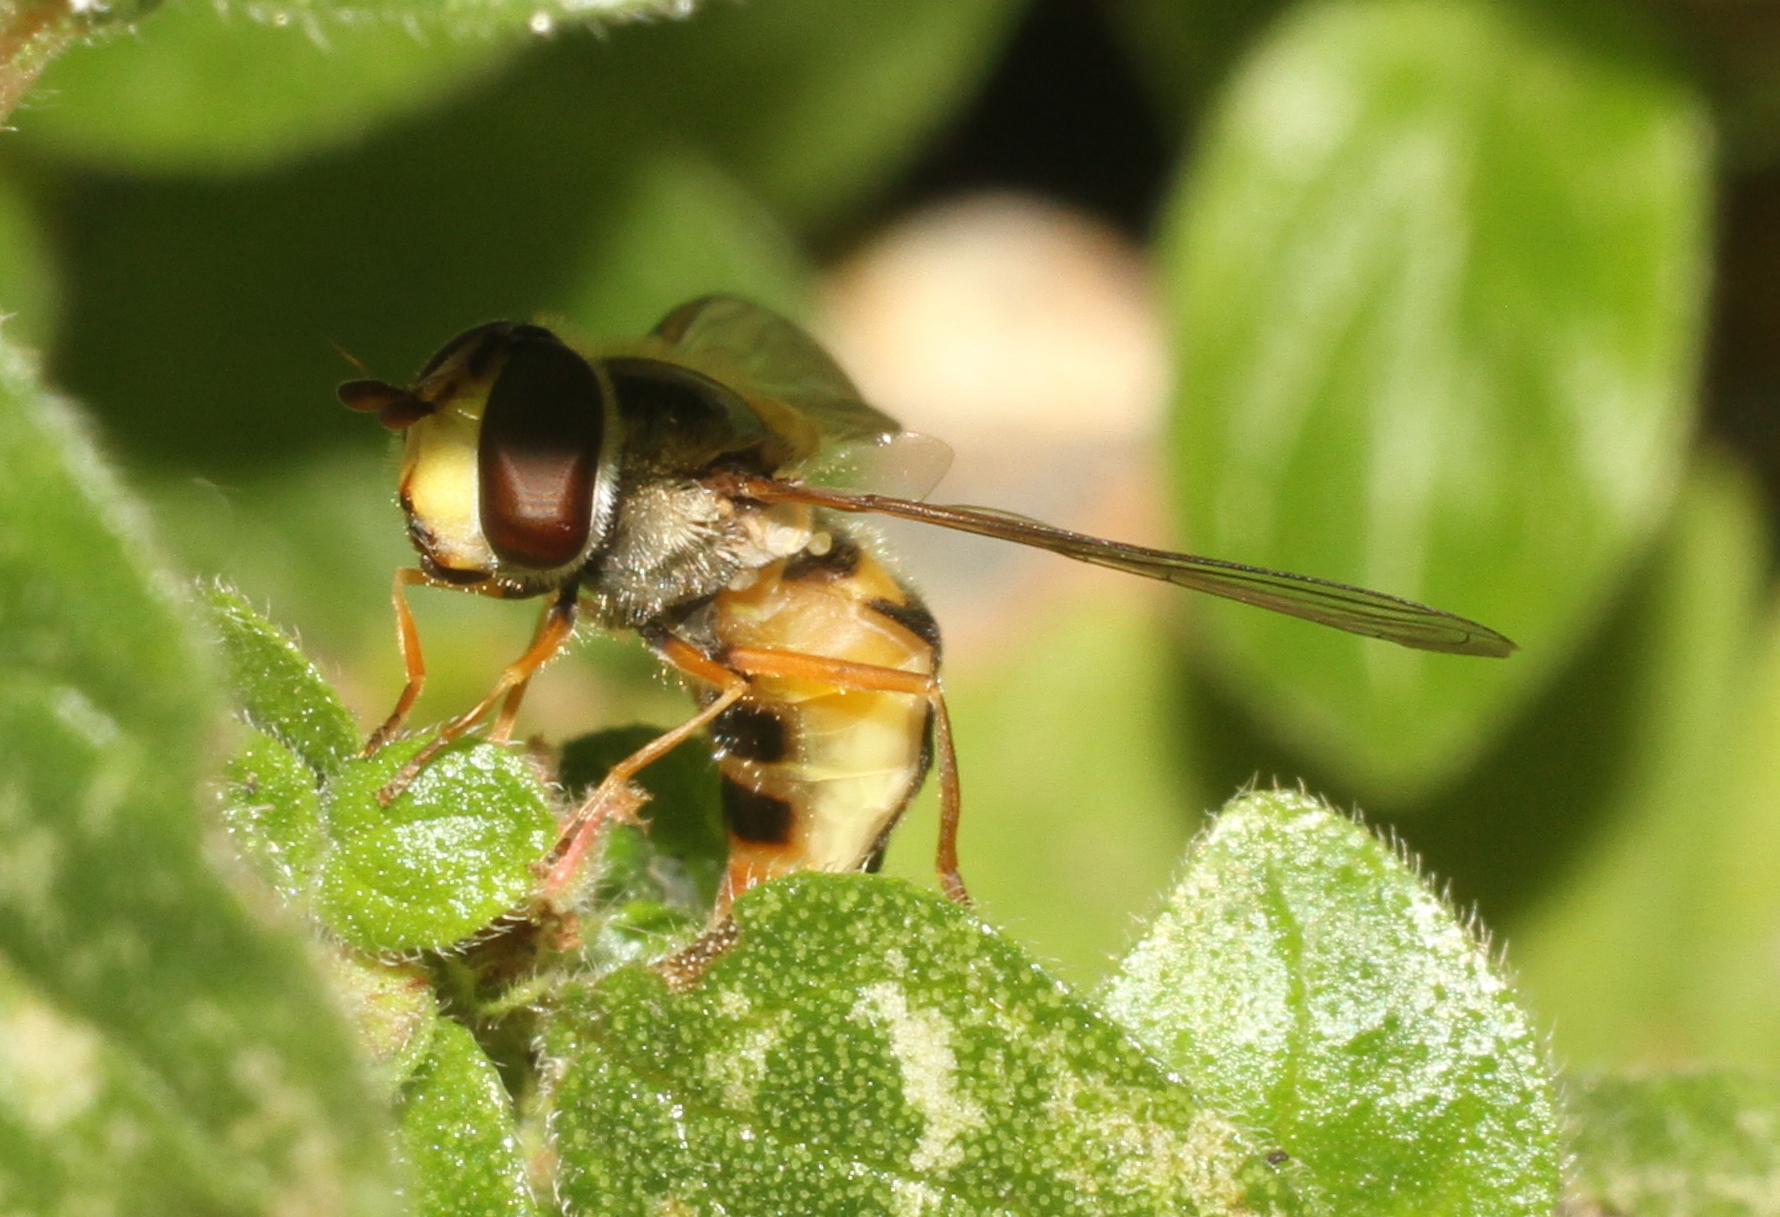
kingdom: Animalia
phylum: Arthropoda
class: Insecta
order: Diptera
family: Syrphidae
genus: Eupeodes
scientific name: Eupeodes luniger
